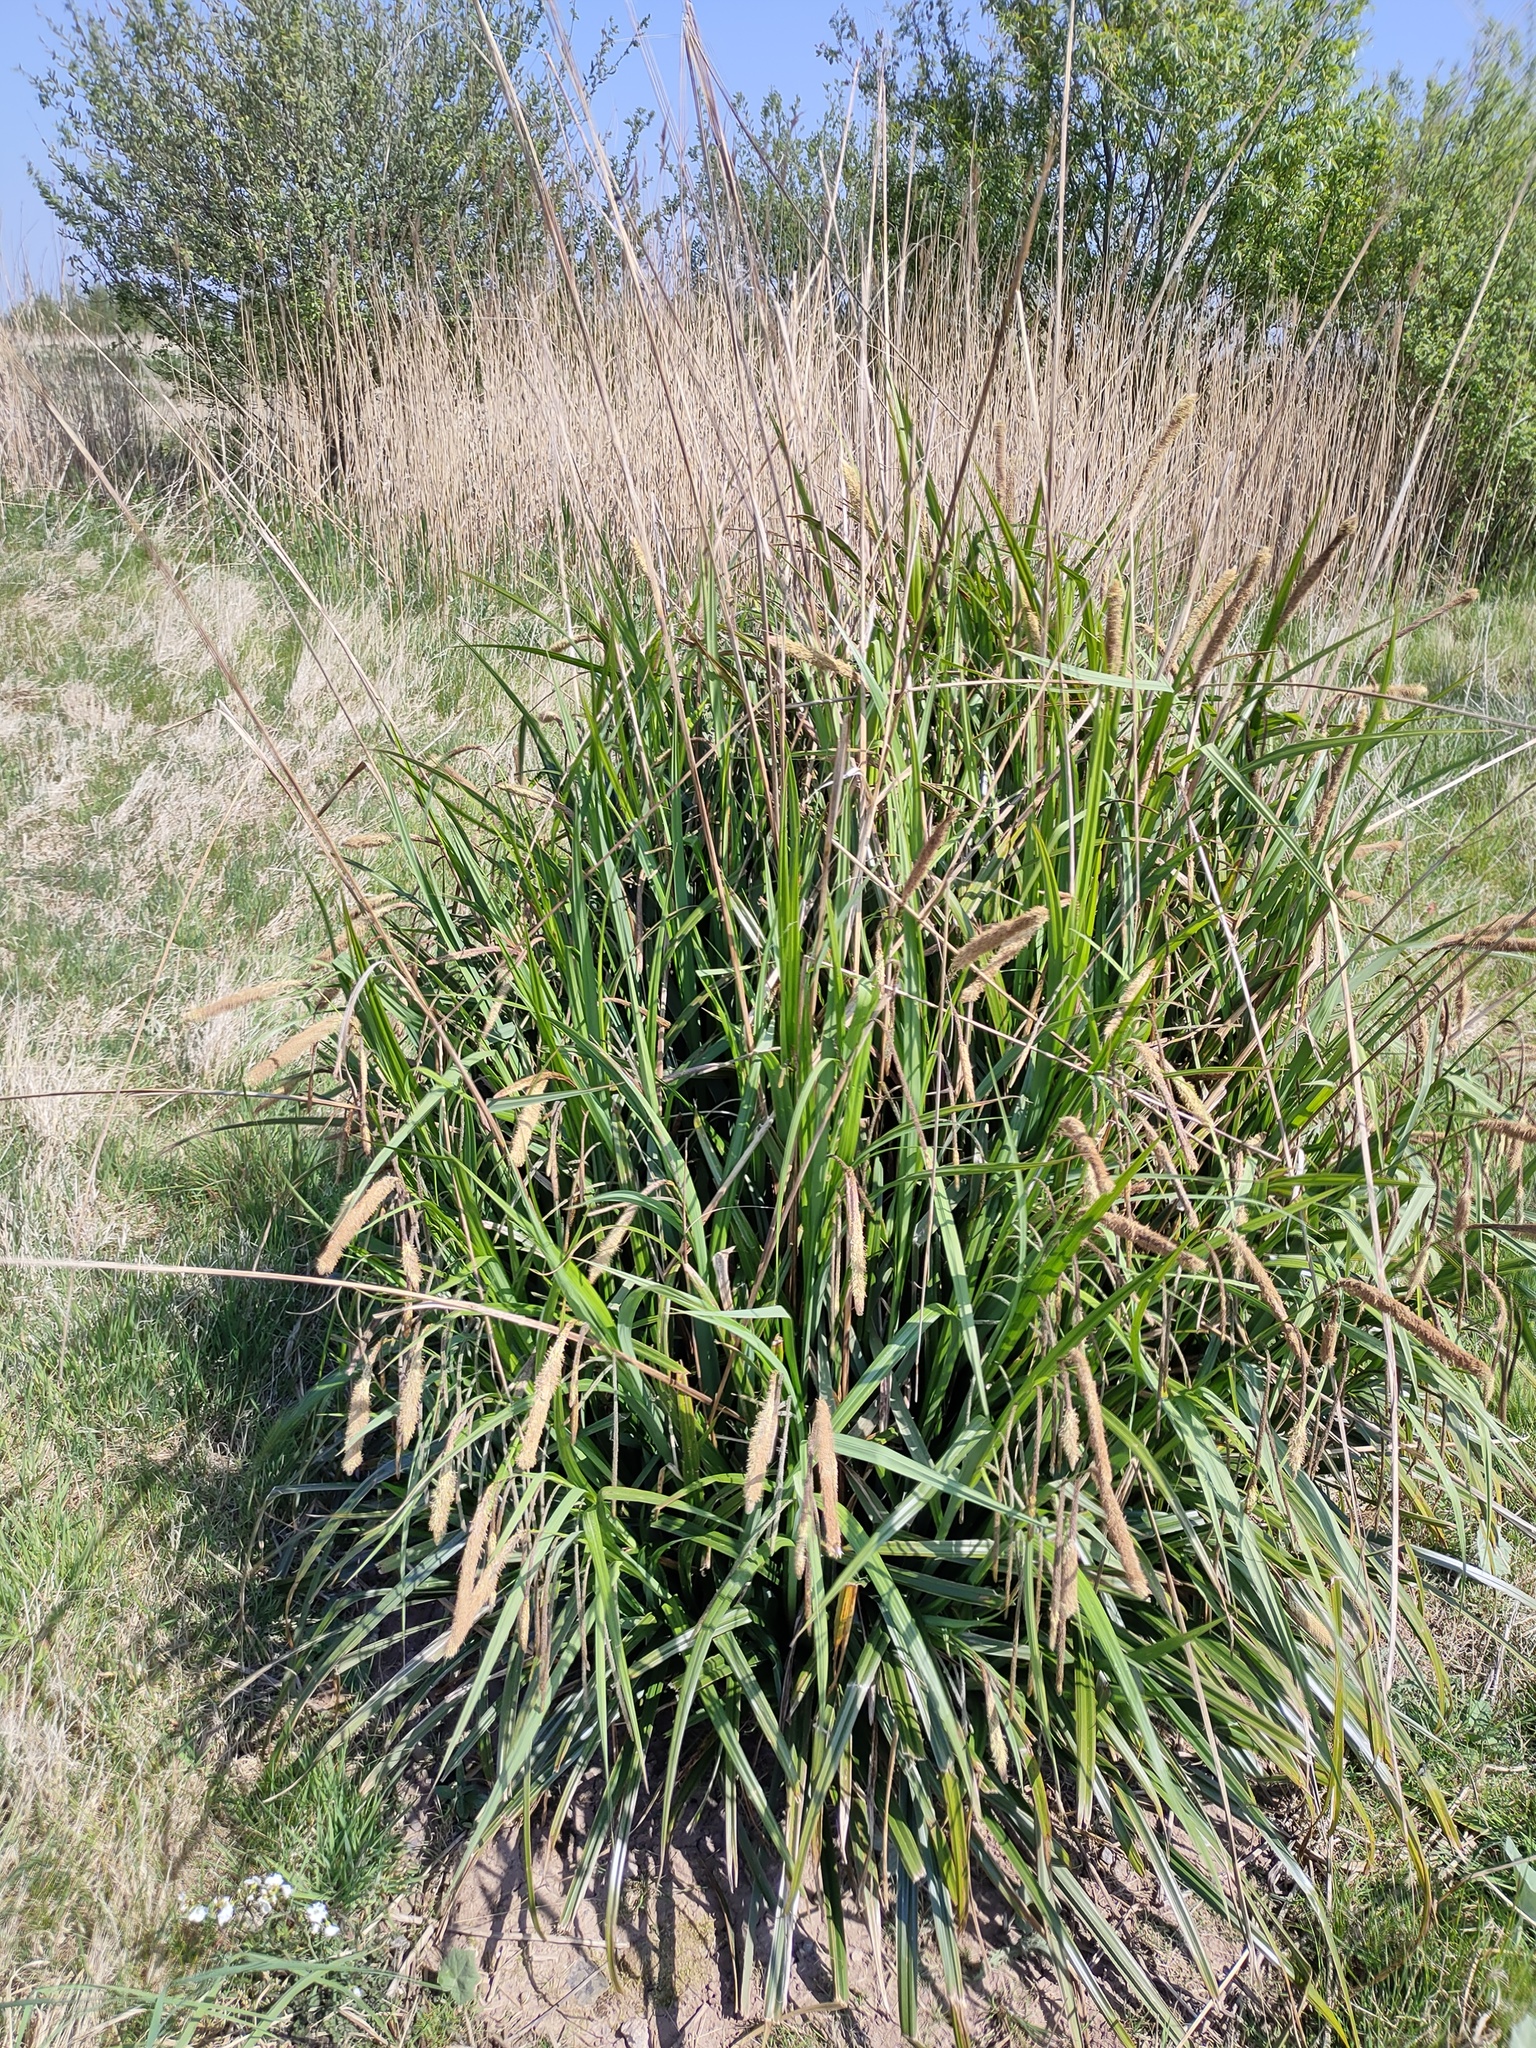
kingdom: Plantae
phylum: Tracheophyta
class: Liliopsida
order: Poales
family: Cyperaceae
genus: Carex
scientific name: Carex pendula
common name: Pendulous sedge
